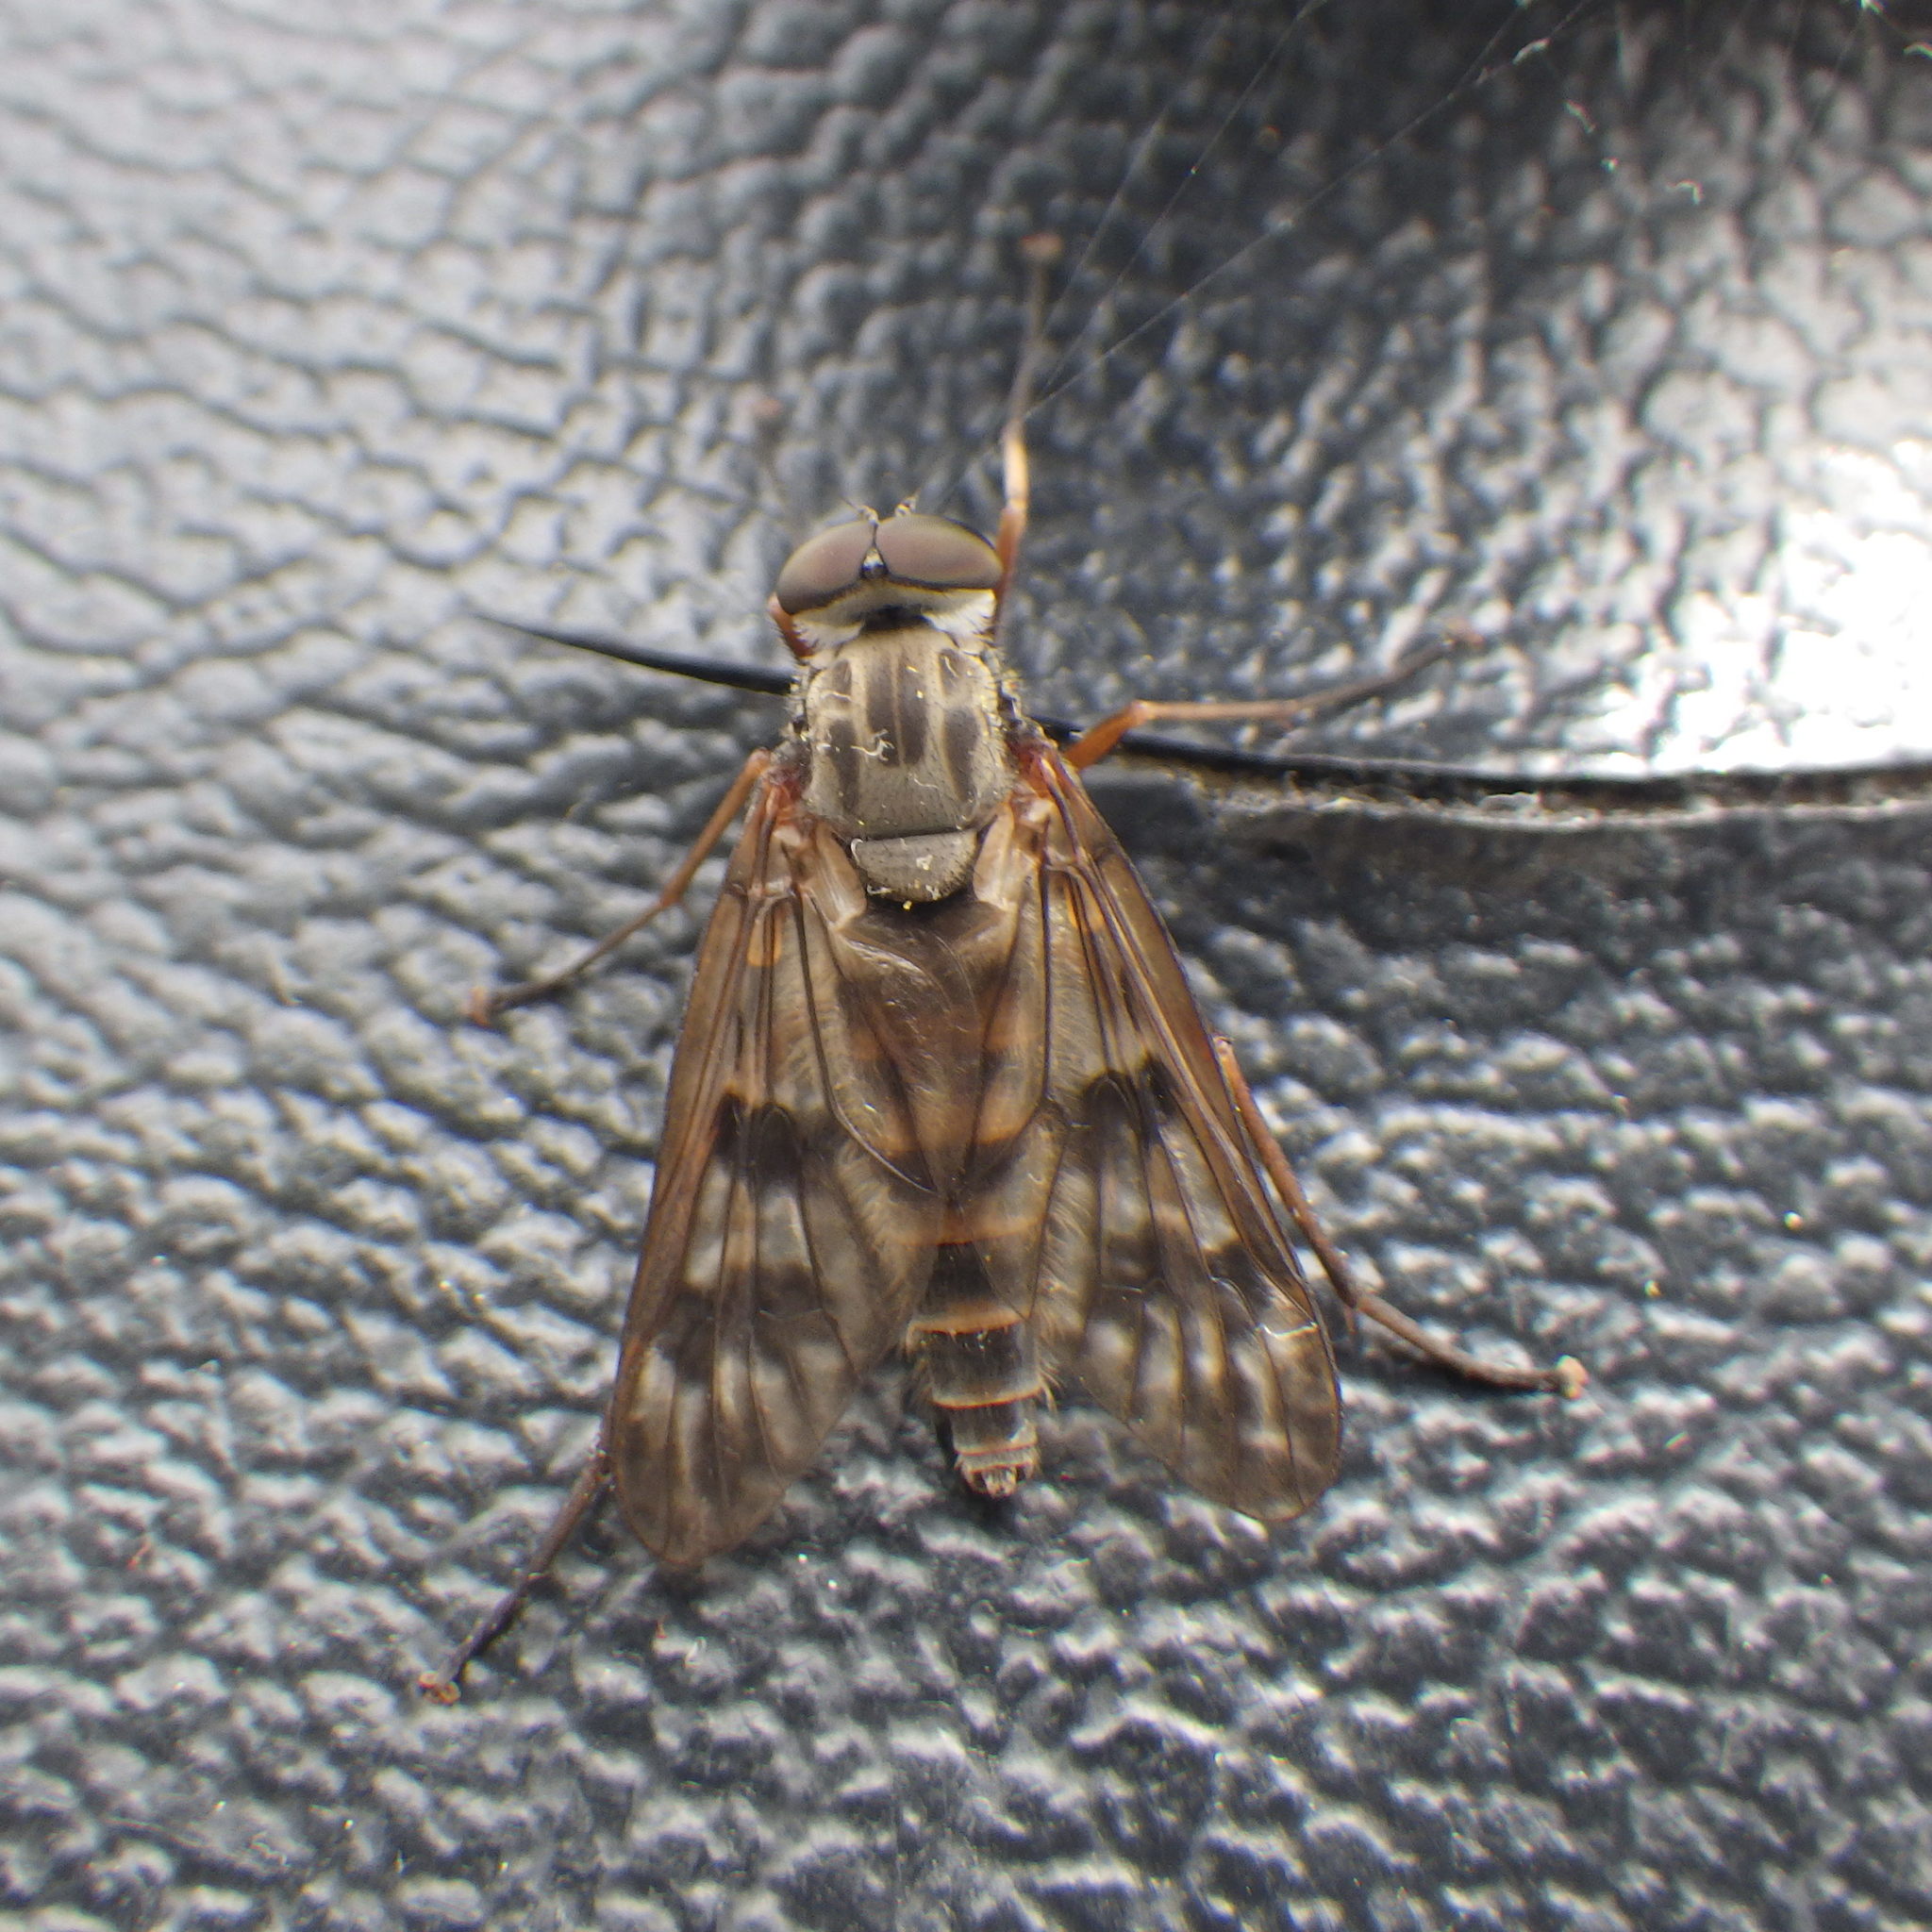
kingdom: Animalia
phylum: Arthropoda
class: Insecta
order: Diptera
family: Rhagionidae
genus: Rhagio
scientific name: Rhagio mystaceus
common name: Common snipe fly
